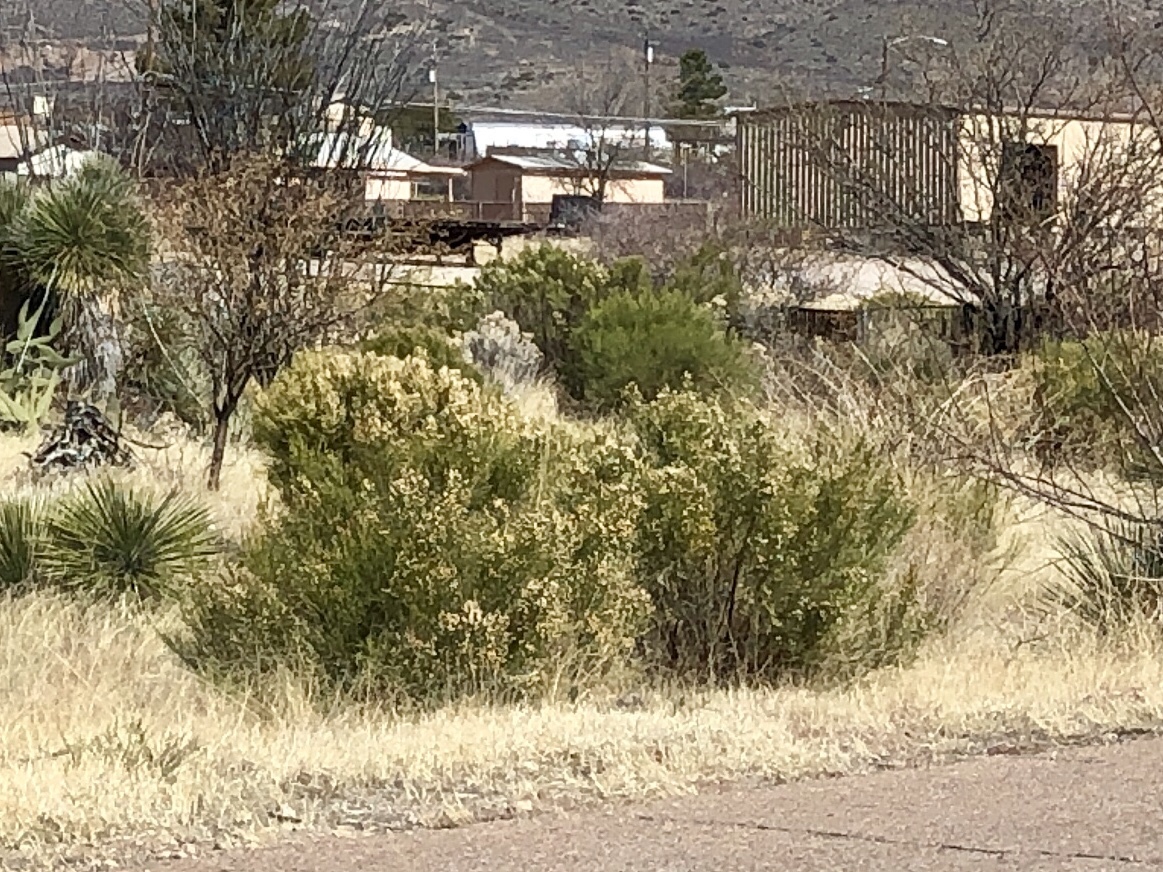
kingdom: Plantae
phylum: Tracheophyta
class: Magnoliopsida
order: Asterales
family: Asteraceae
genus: Baccharis
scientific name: Baccharis sarothroides
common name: Desert-broom
